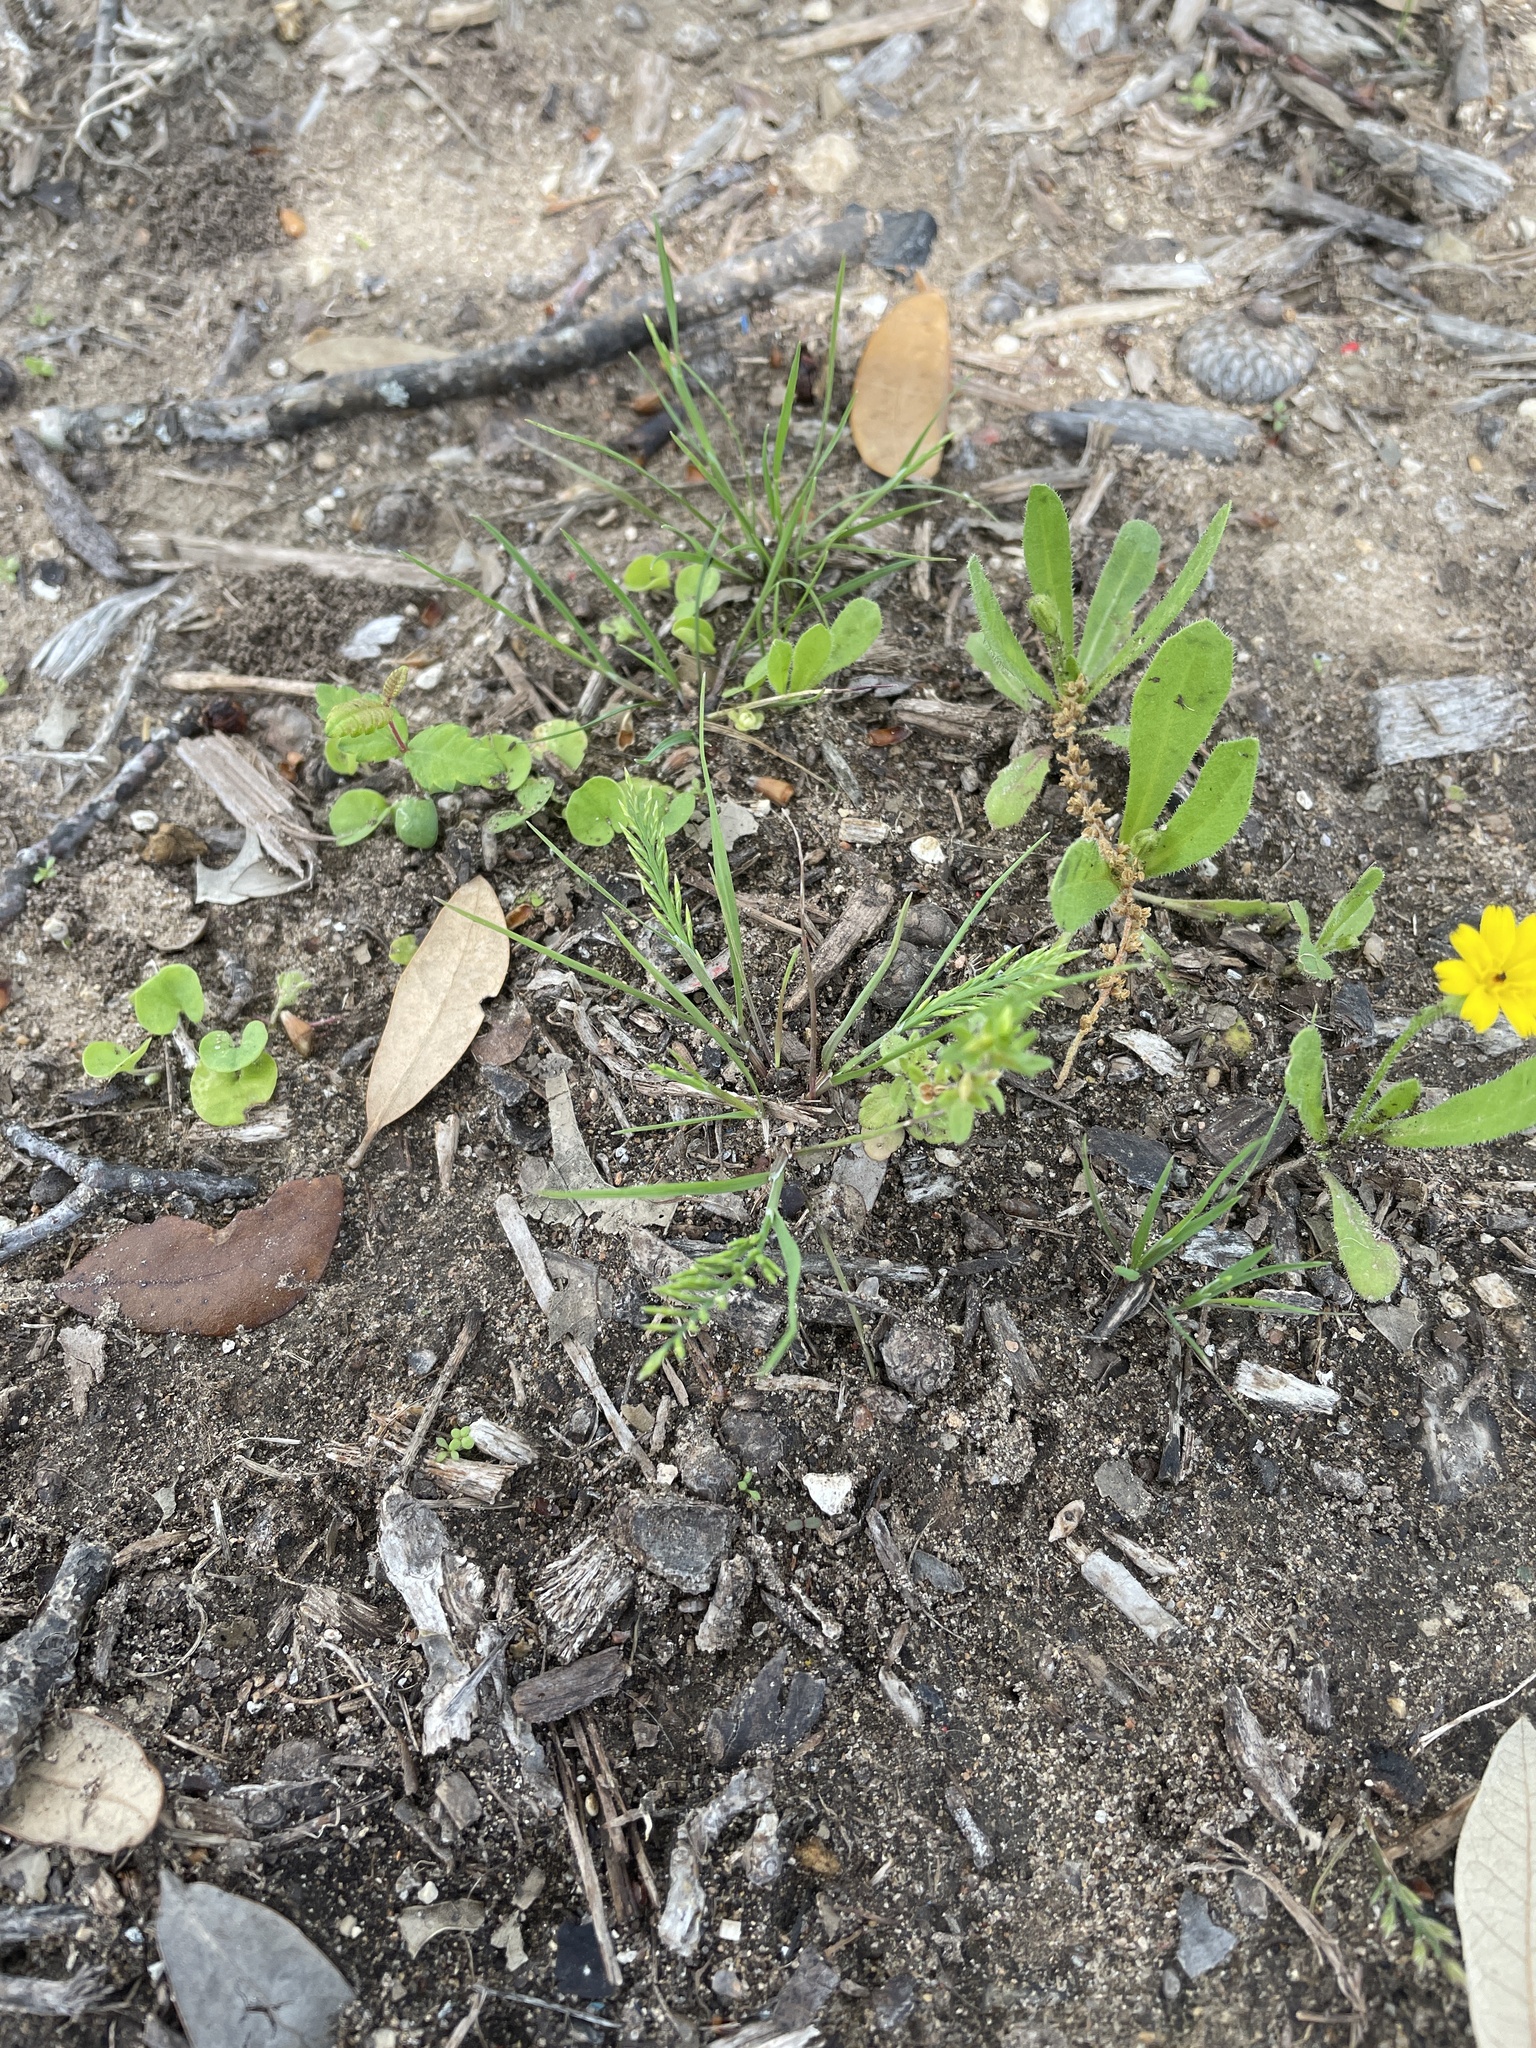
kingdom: Plantae
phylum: Tracheophyta
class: Liliopsida
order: Poales
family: Poaceae
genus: Catapodium
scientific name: Catapodium rigidum
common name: Fern-grass
